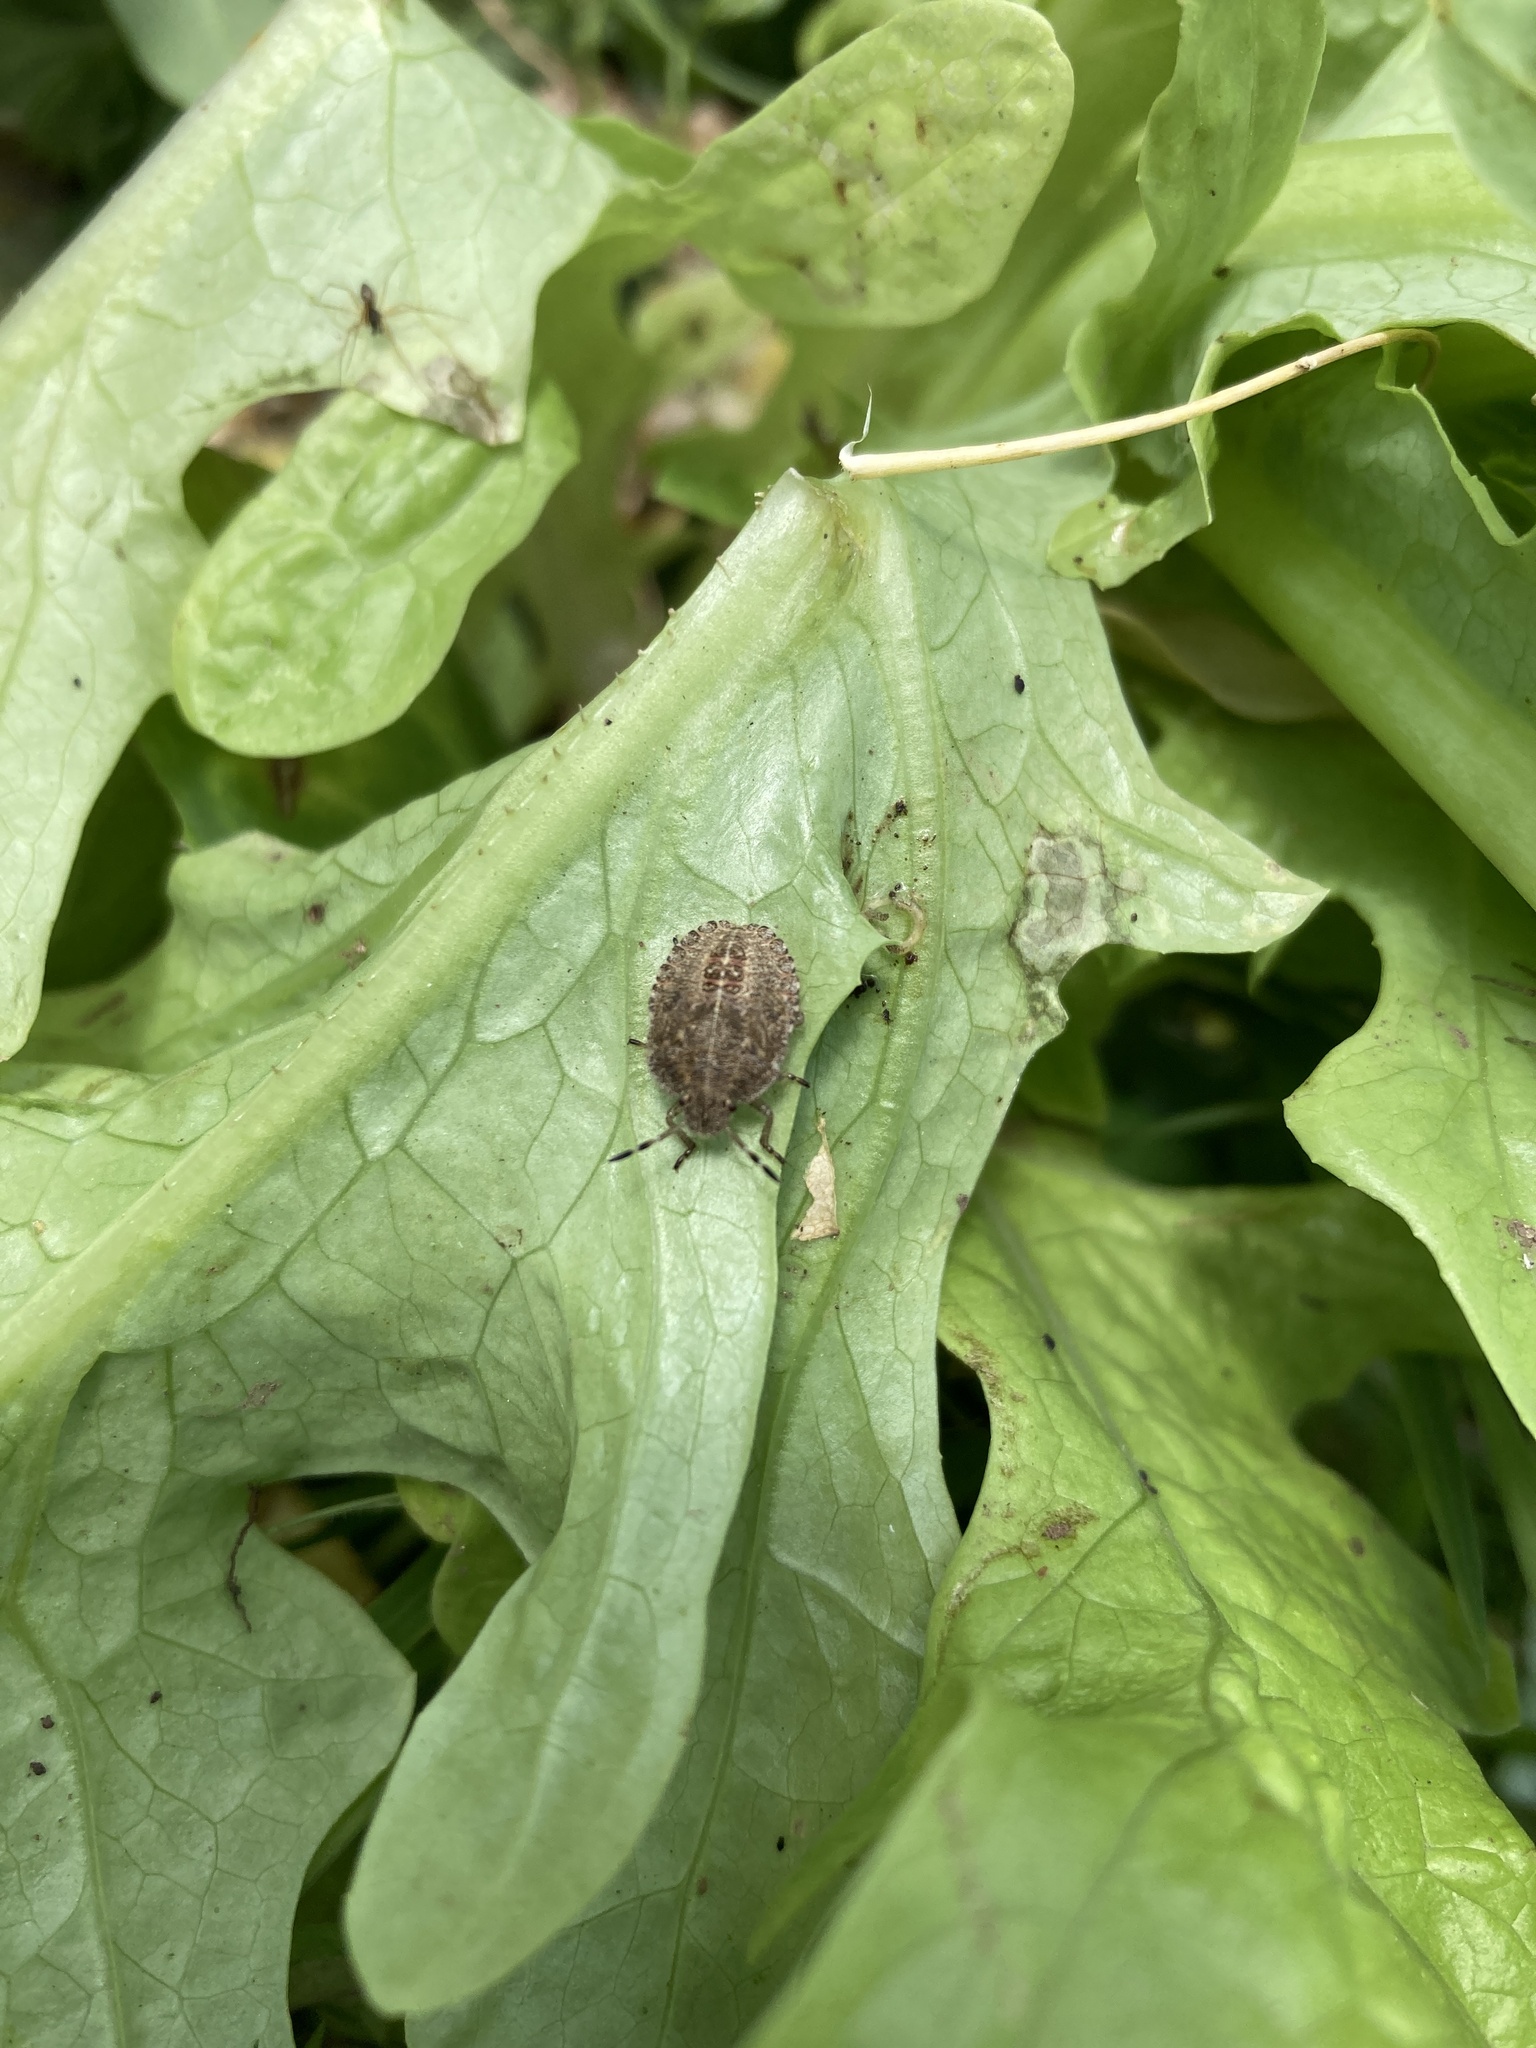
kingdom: Animalia
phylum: Arthropoda
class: Insecta
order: Hemiptera
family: Pentatomidae
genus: Dolycoris
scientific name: Dolycoris baccarum
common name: Sloe bug
